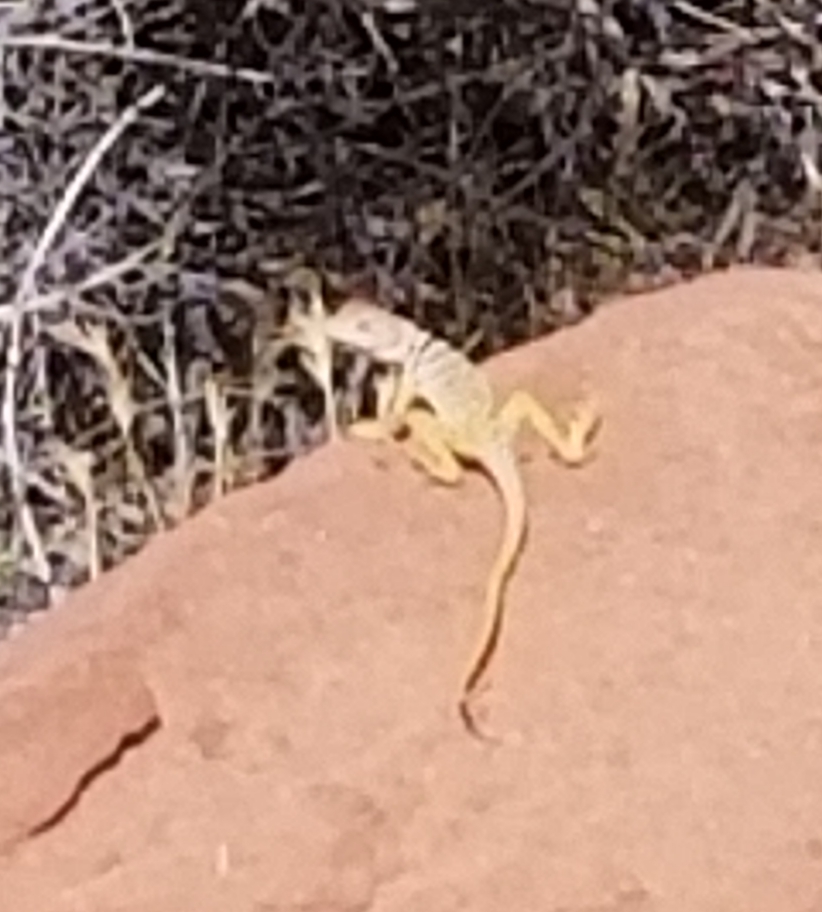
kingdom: Animalia
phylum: Chordata
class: Squamata
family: Crotaphytidae
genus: Crotaphytus
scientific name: Crotaphytus bicinctores
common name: Mojave black-collared lizard
